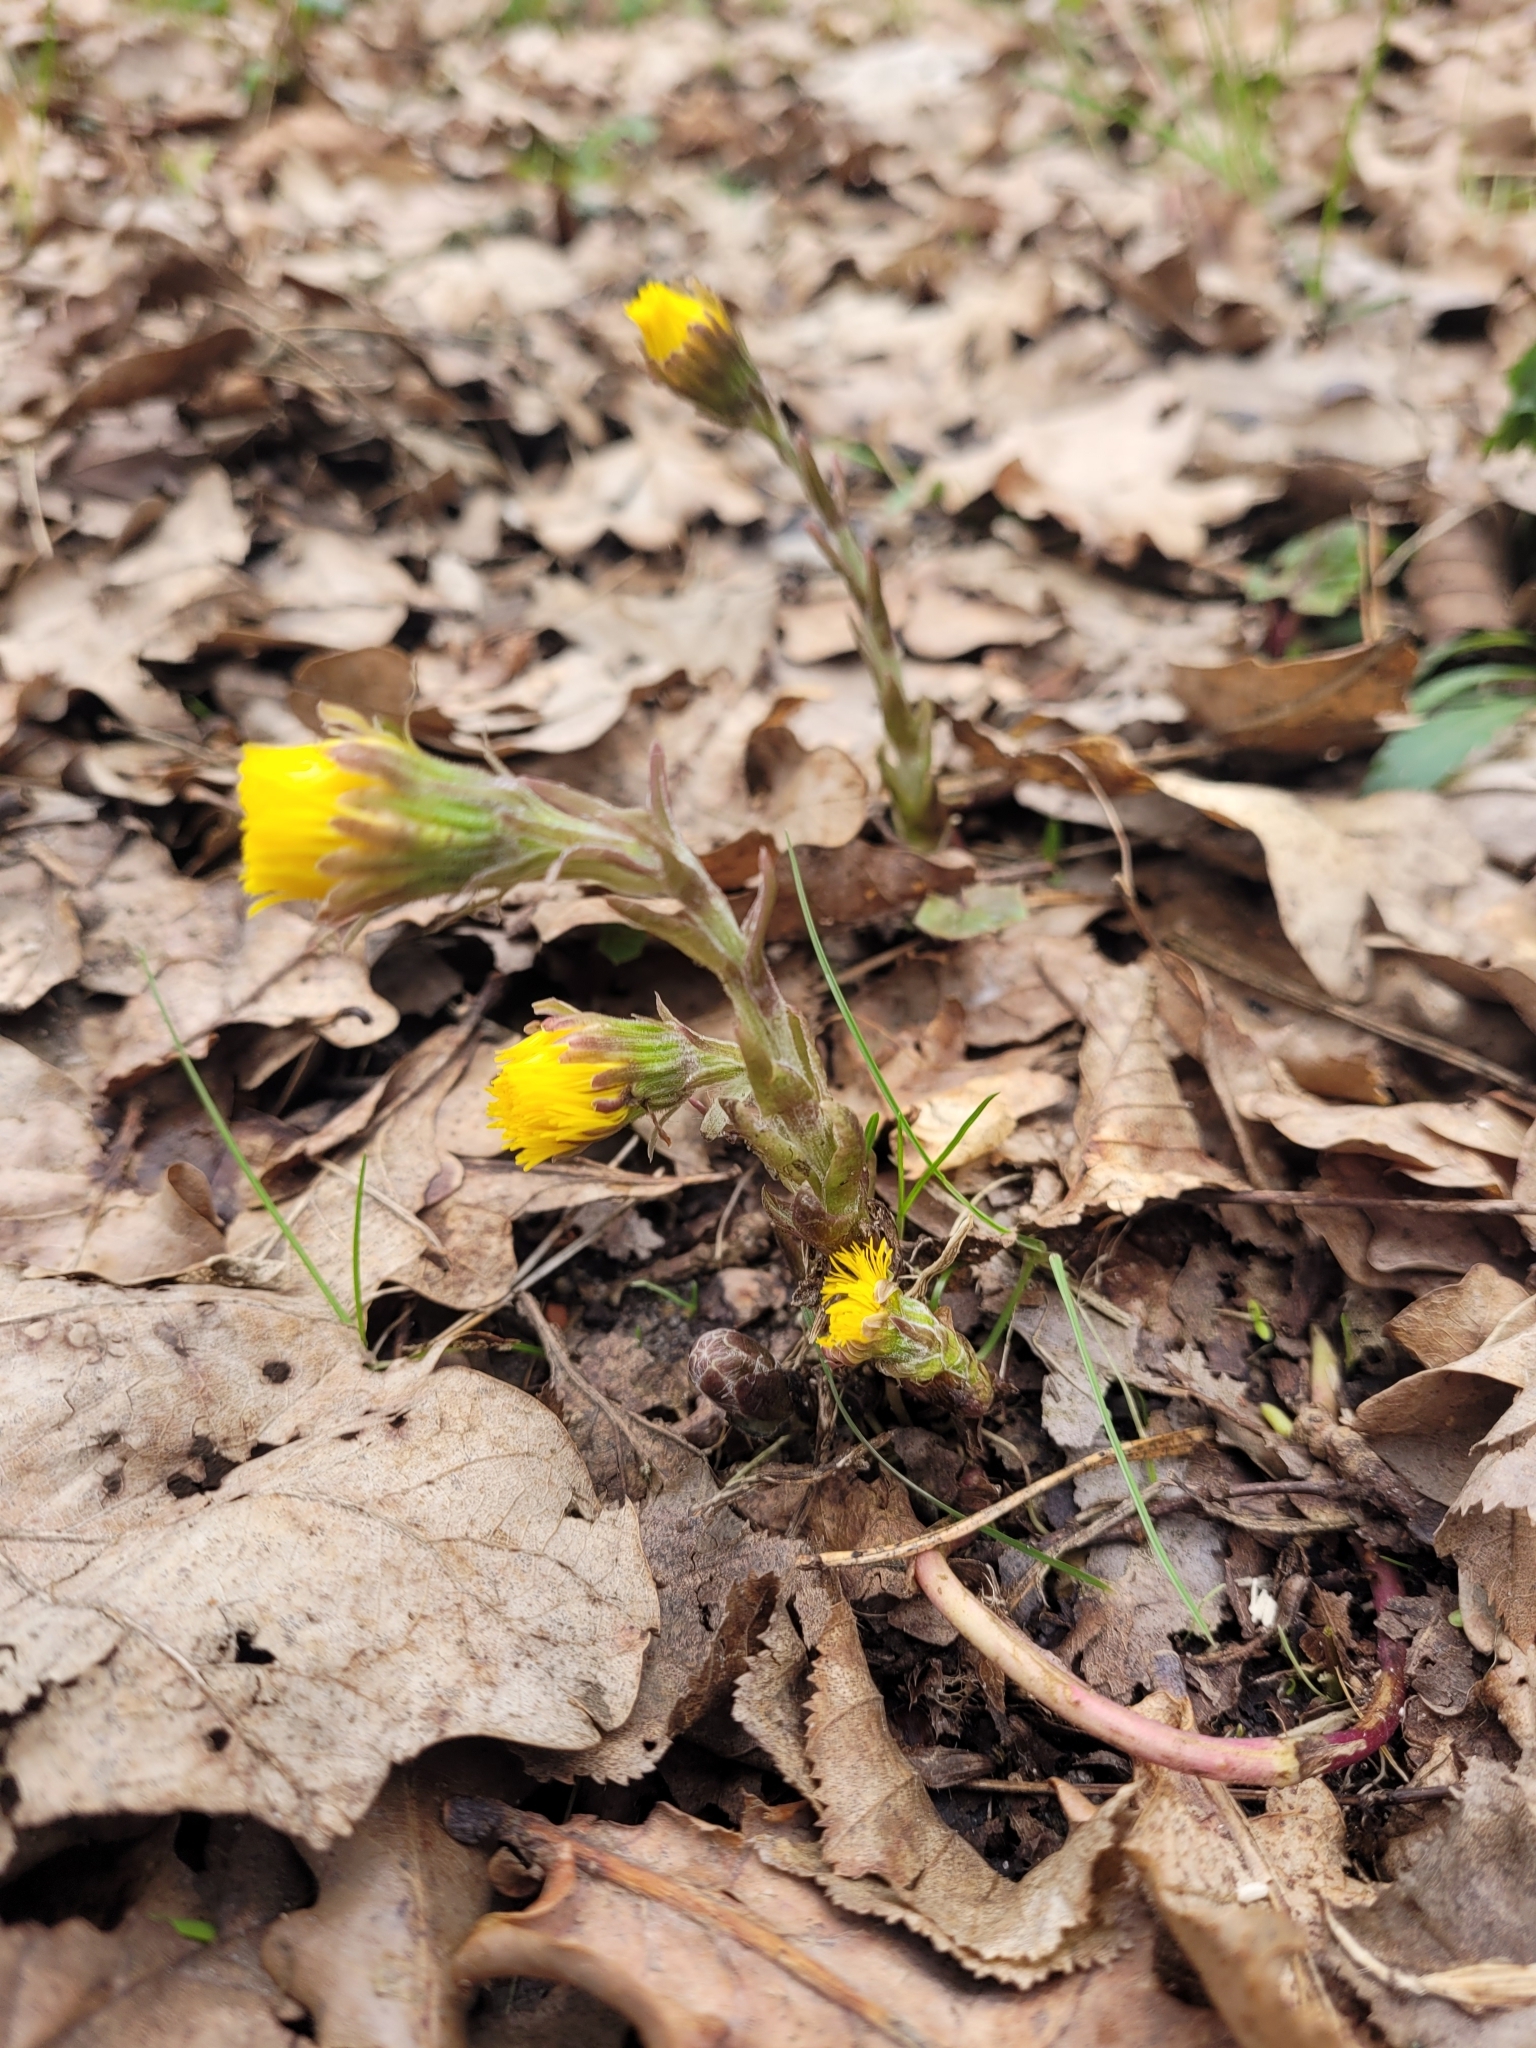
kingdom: Plantae
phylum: Tracheophyta
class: Magnoliopsida
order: Asterales
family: Asteraceae
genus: Tussilago
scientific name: Tussilago farfara
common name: Coltsfoot
